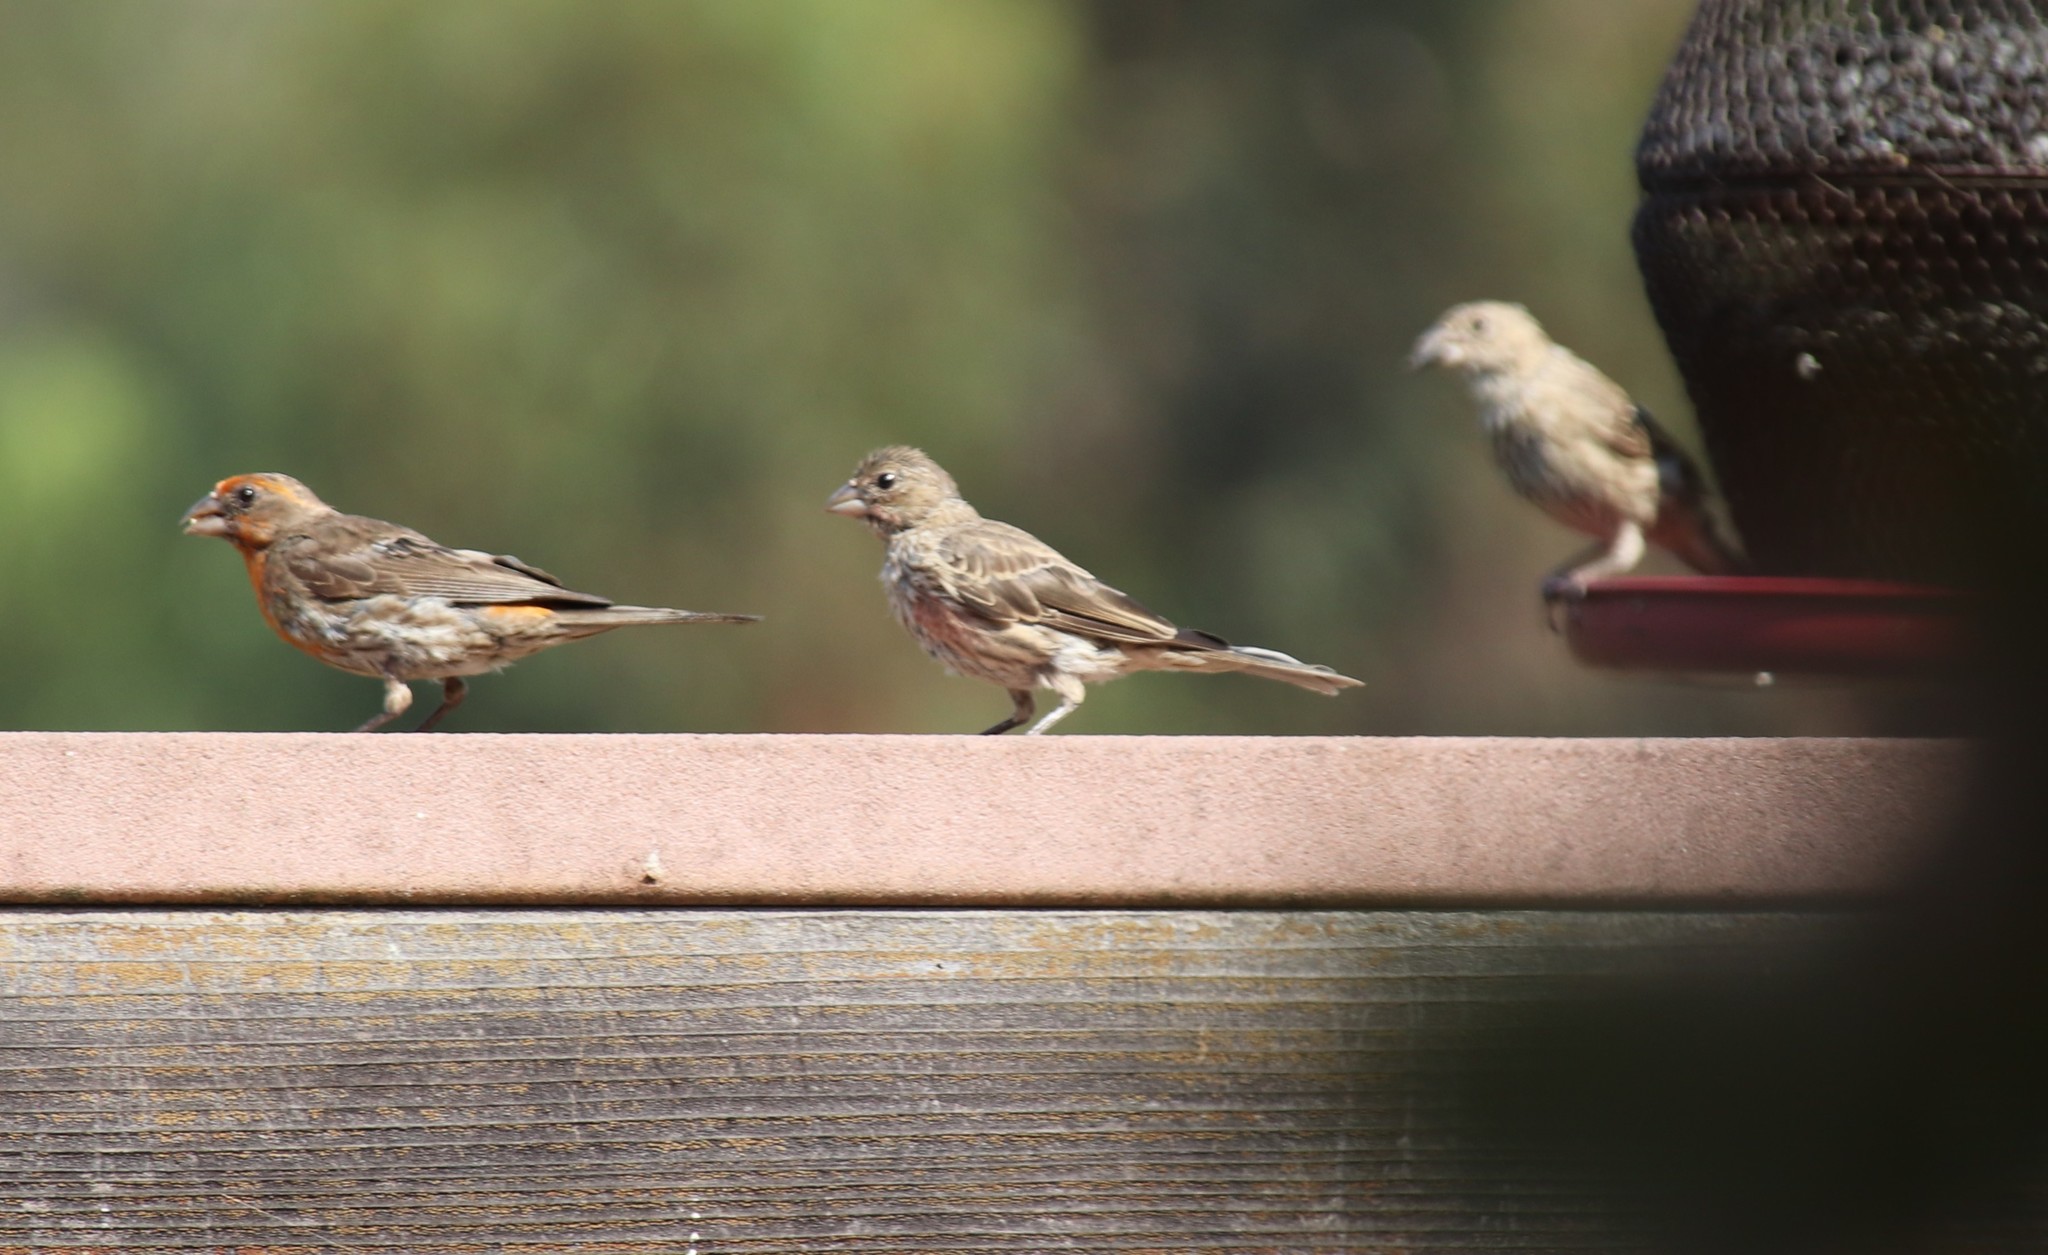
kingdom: Animalia
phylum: Chordata
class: Aves
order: Passeriformes
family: Fringillidae
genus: Haemorhous
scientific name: Haemorhous mexicanus
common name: House finch
